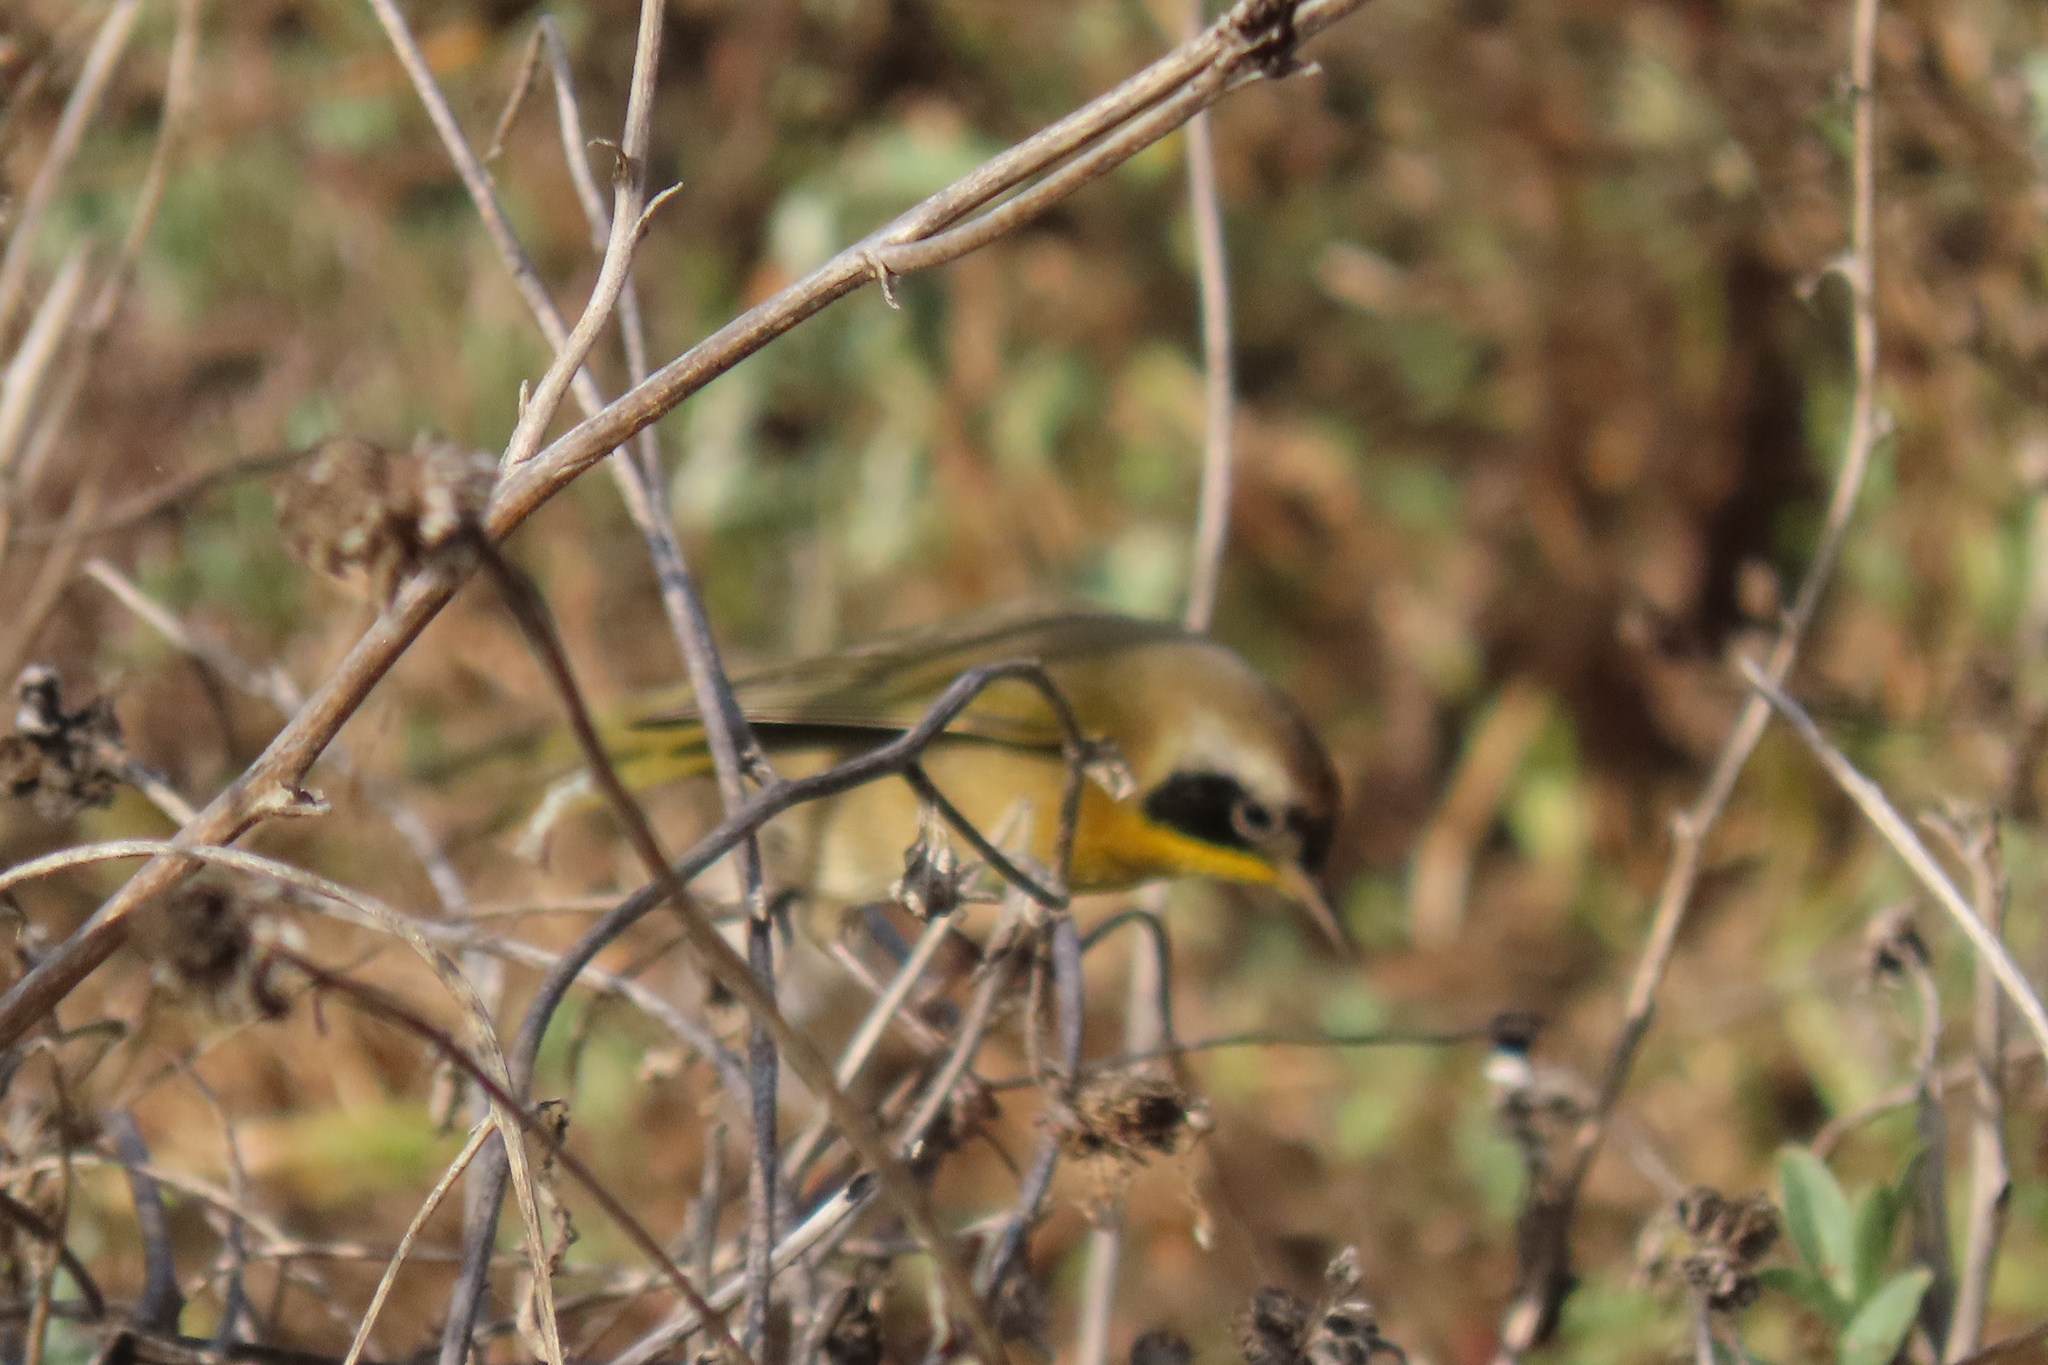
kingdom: Animalia
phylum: Chordata
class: Aves
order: Passeriformes
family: Parulidae
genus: Geothlypis
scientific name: Geothlypis trichas
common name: Common yellowthroat
